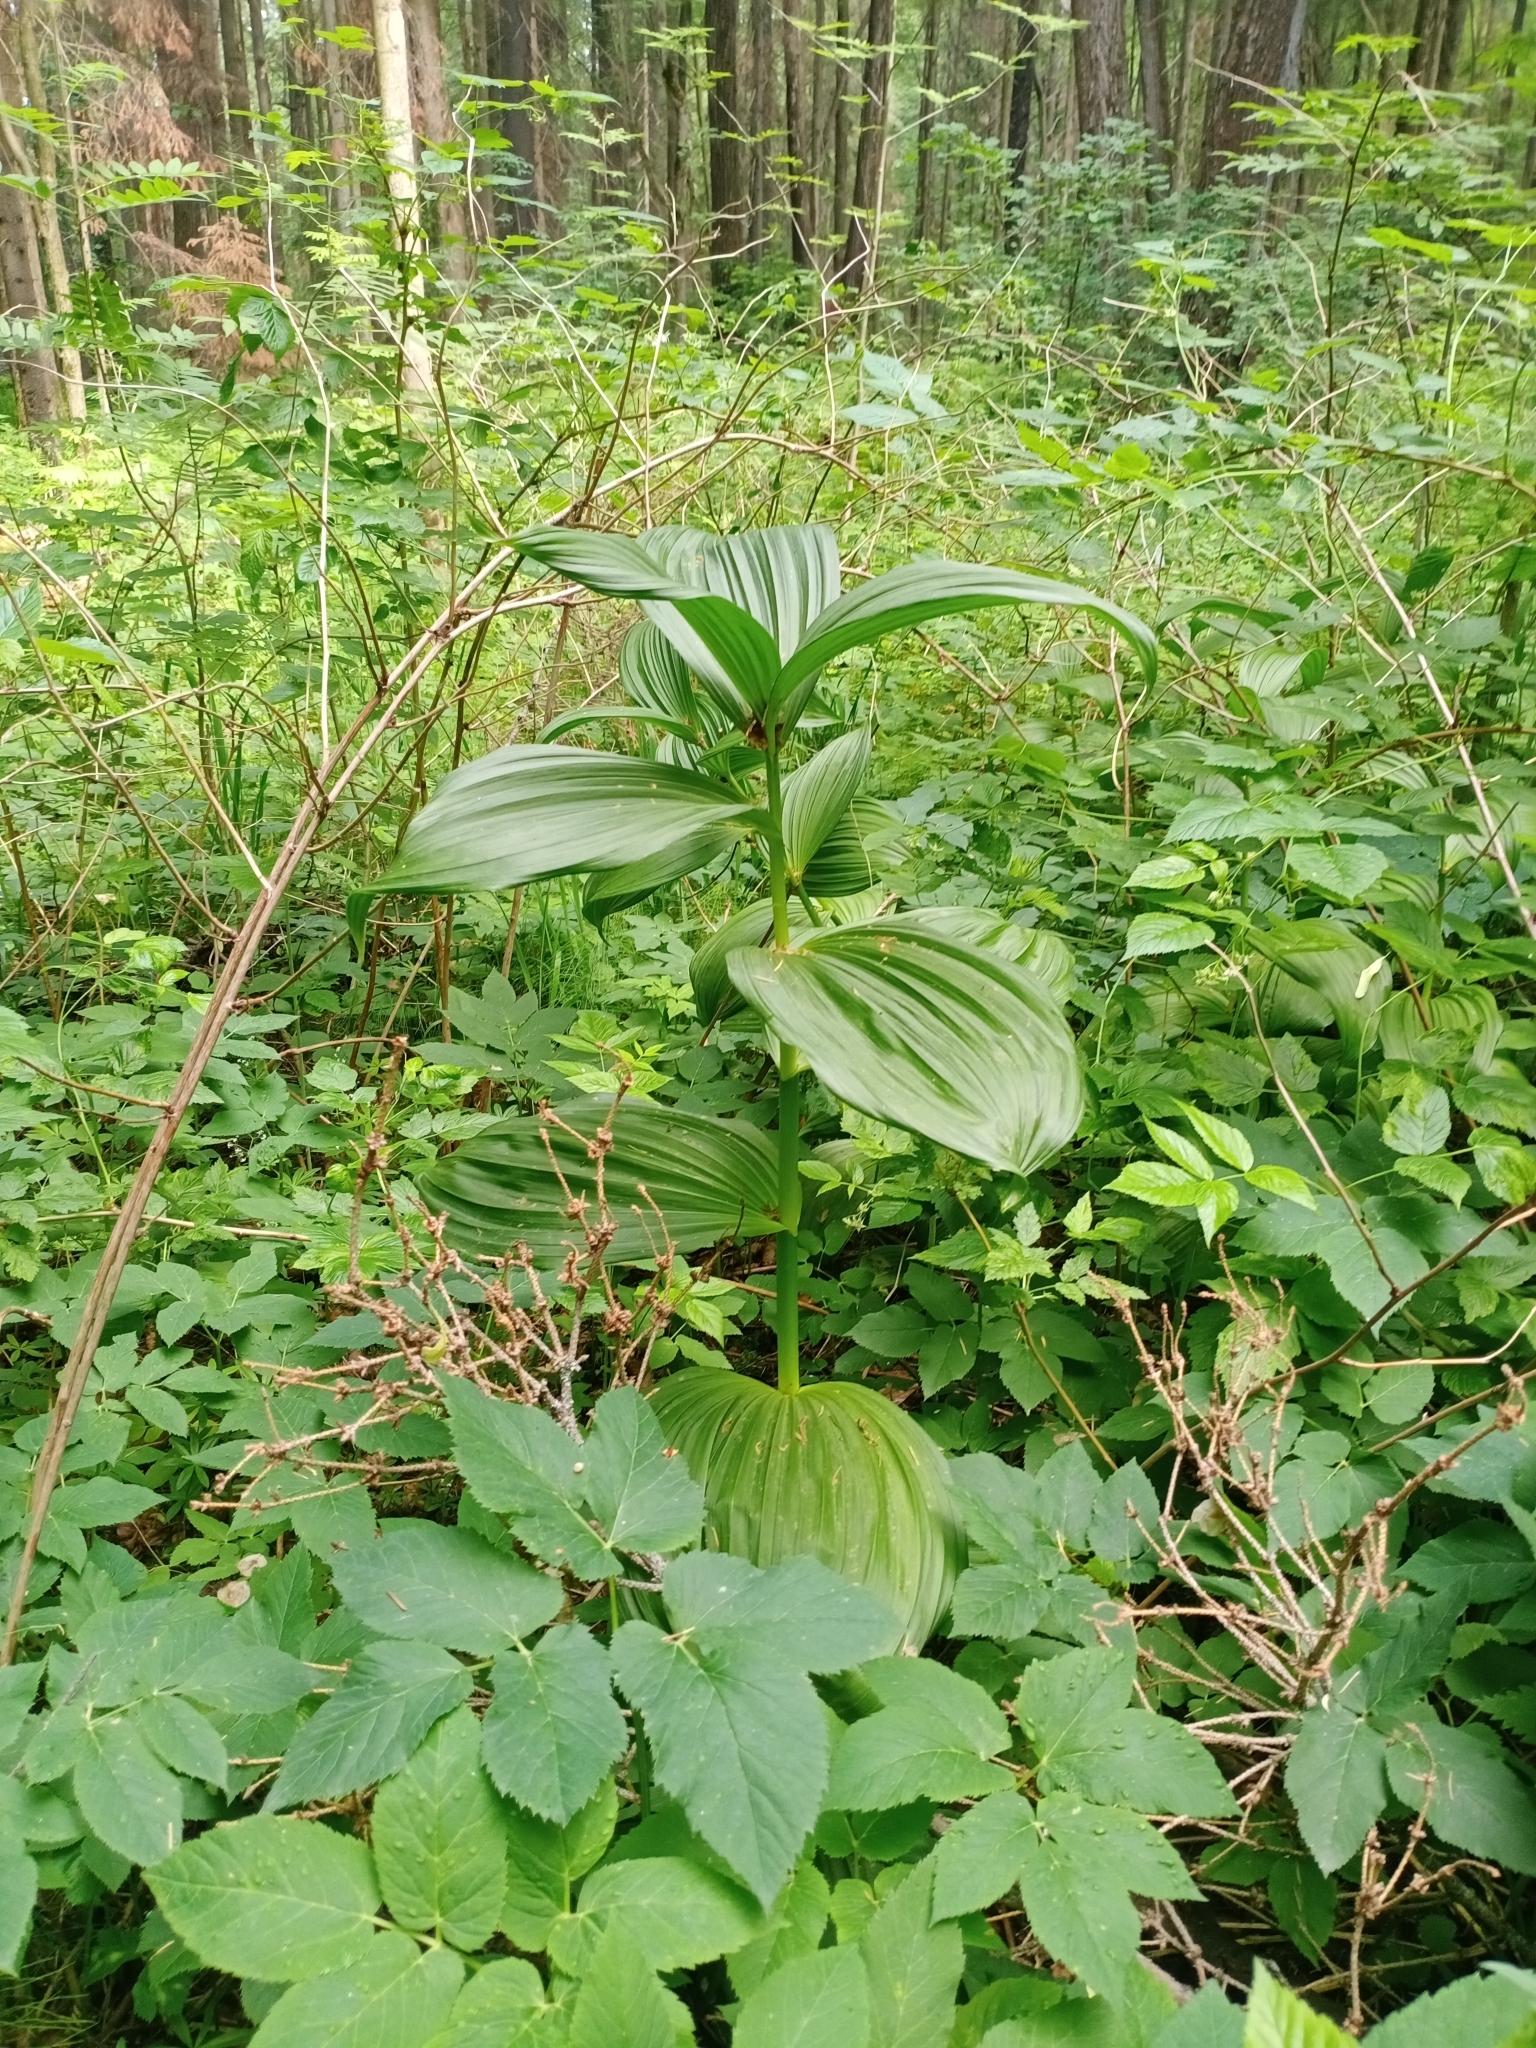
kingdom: Plantae
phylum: Tracheophyta
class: Liliopsida
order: Liliales
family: Melanthiaceae
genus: Veratrum
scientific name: Veratrum lobelianum
